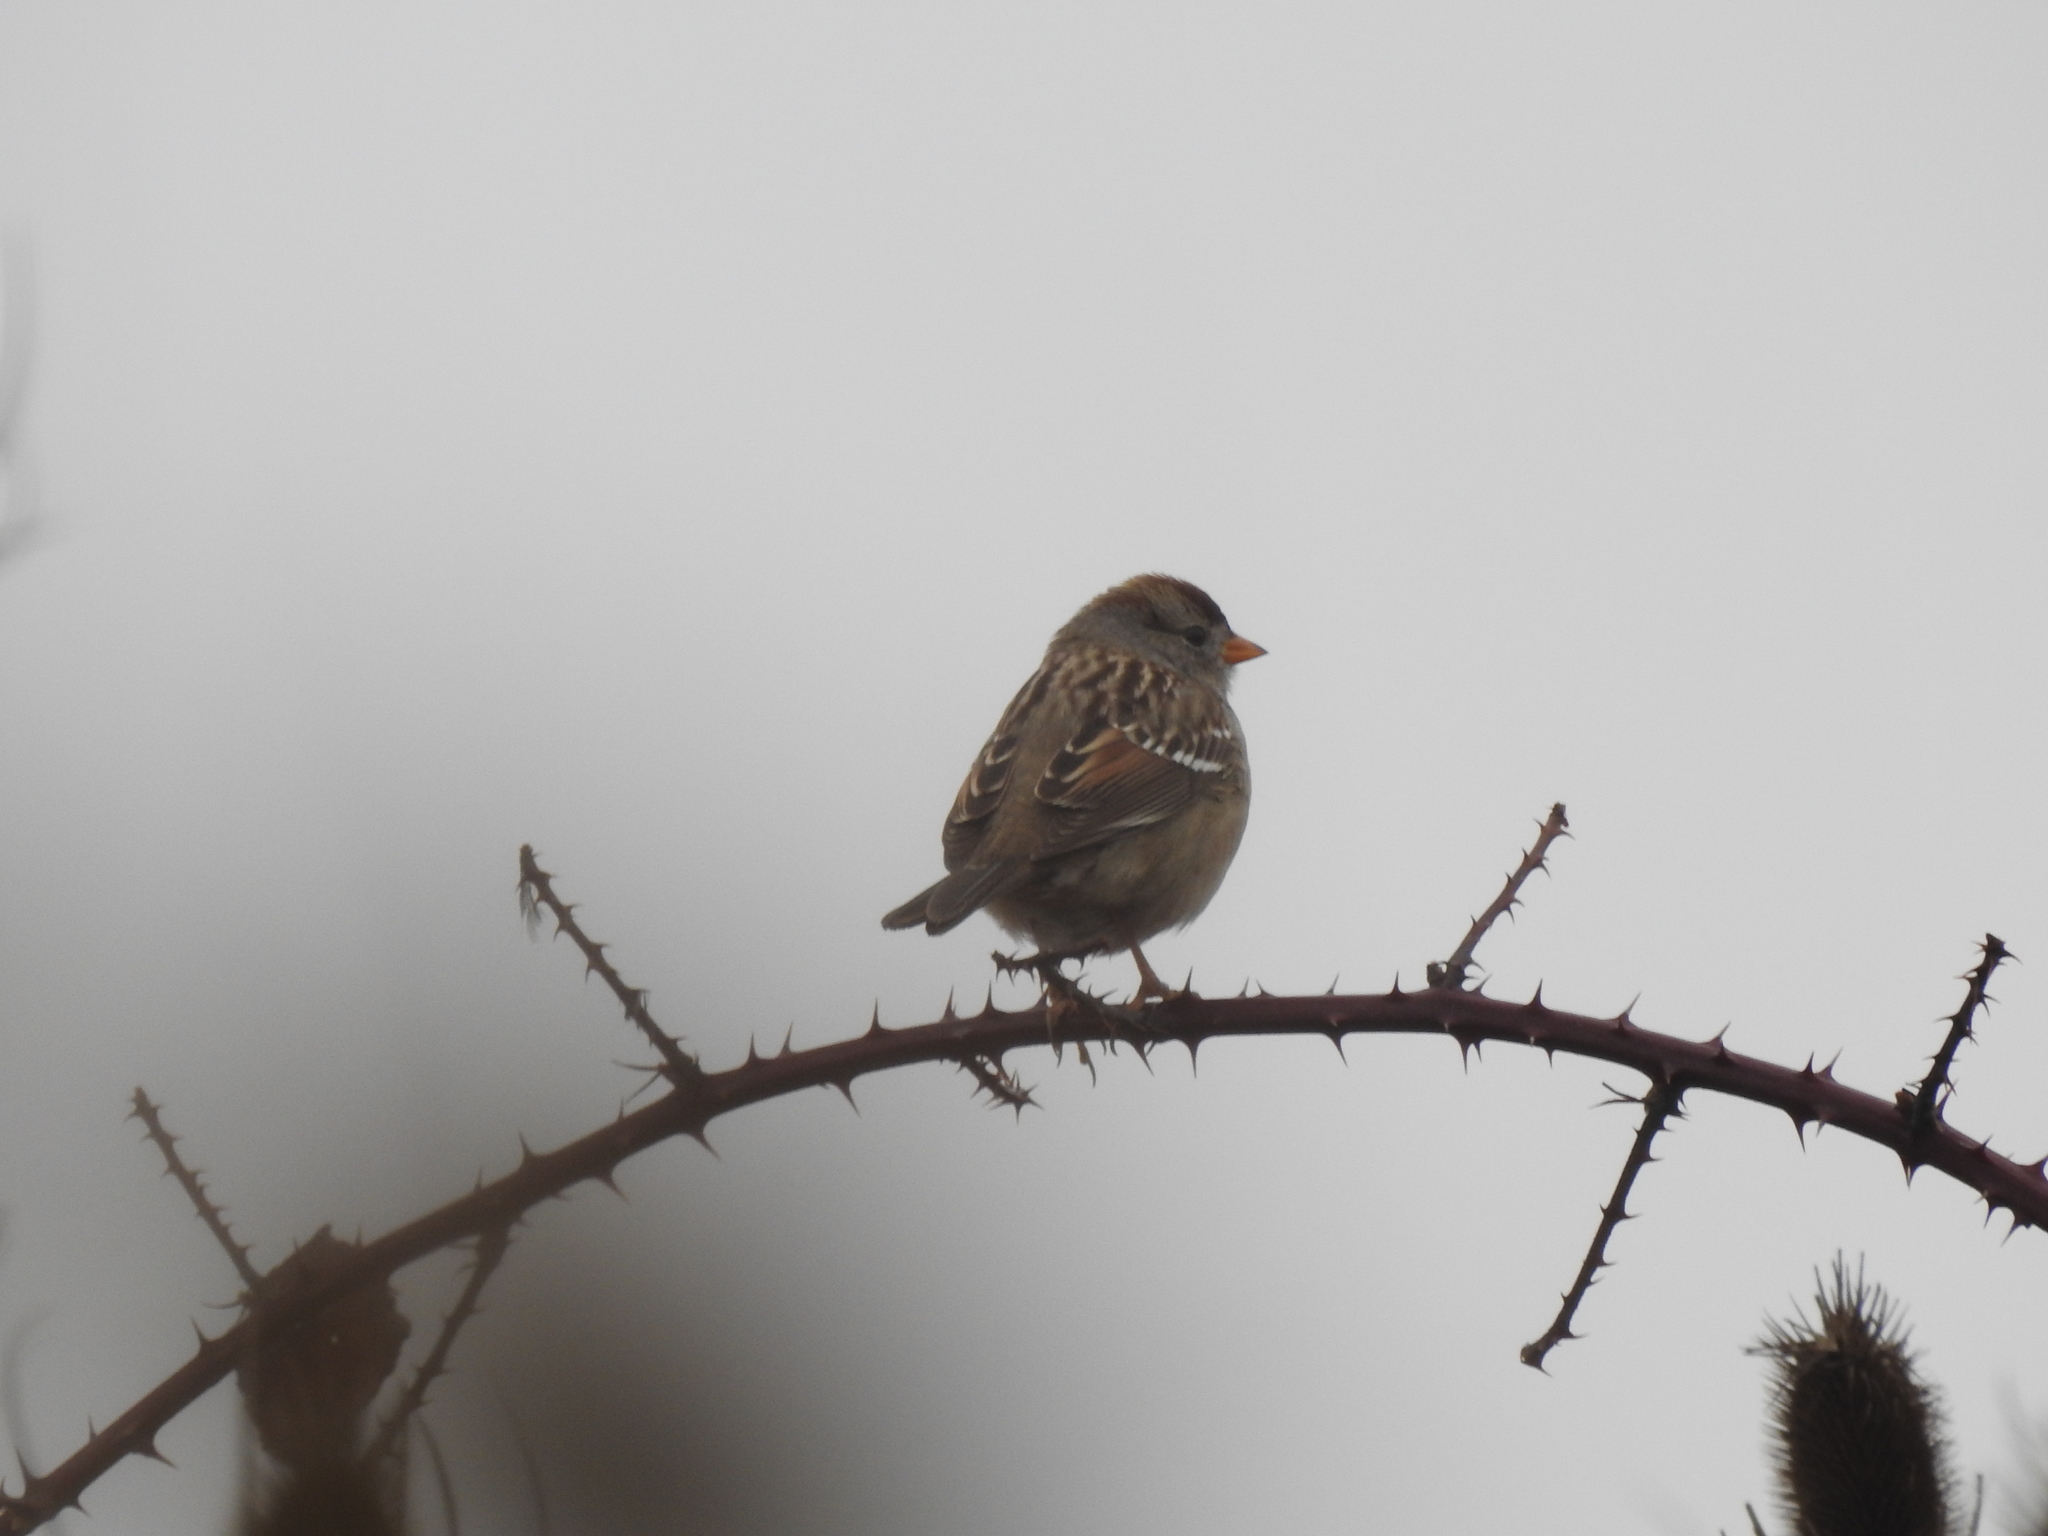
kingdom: Animalia
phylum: Chordata
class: Aves
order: Passeriformes
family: Passerellidae
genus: Zonotrichia
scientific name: Zonotrichia leucophrys
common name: White-crowned sparrow
